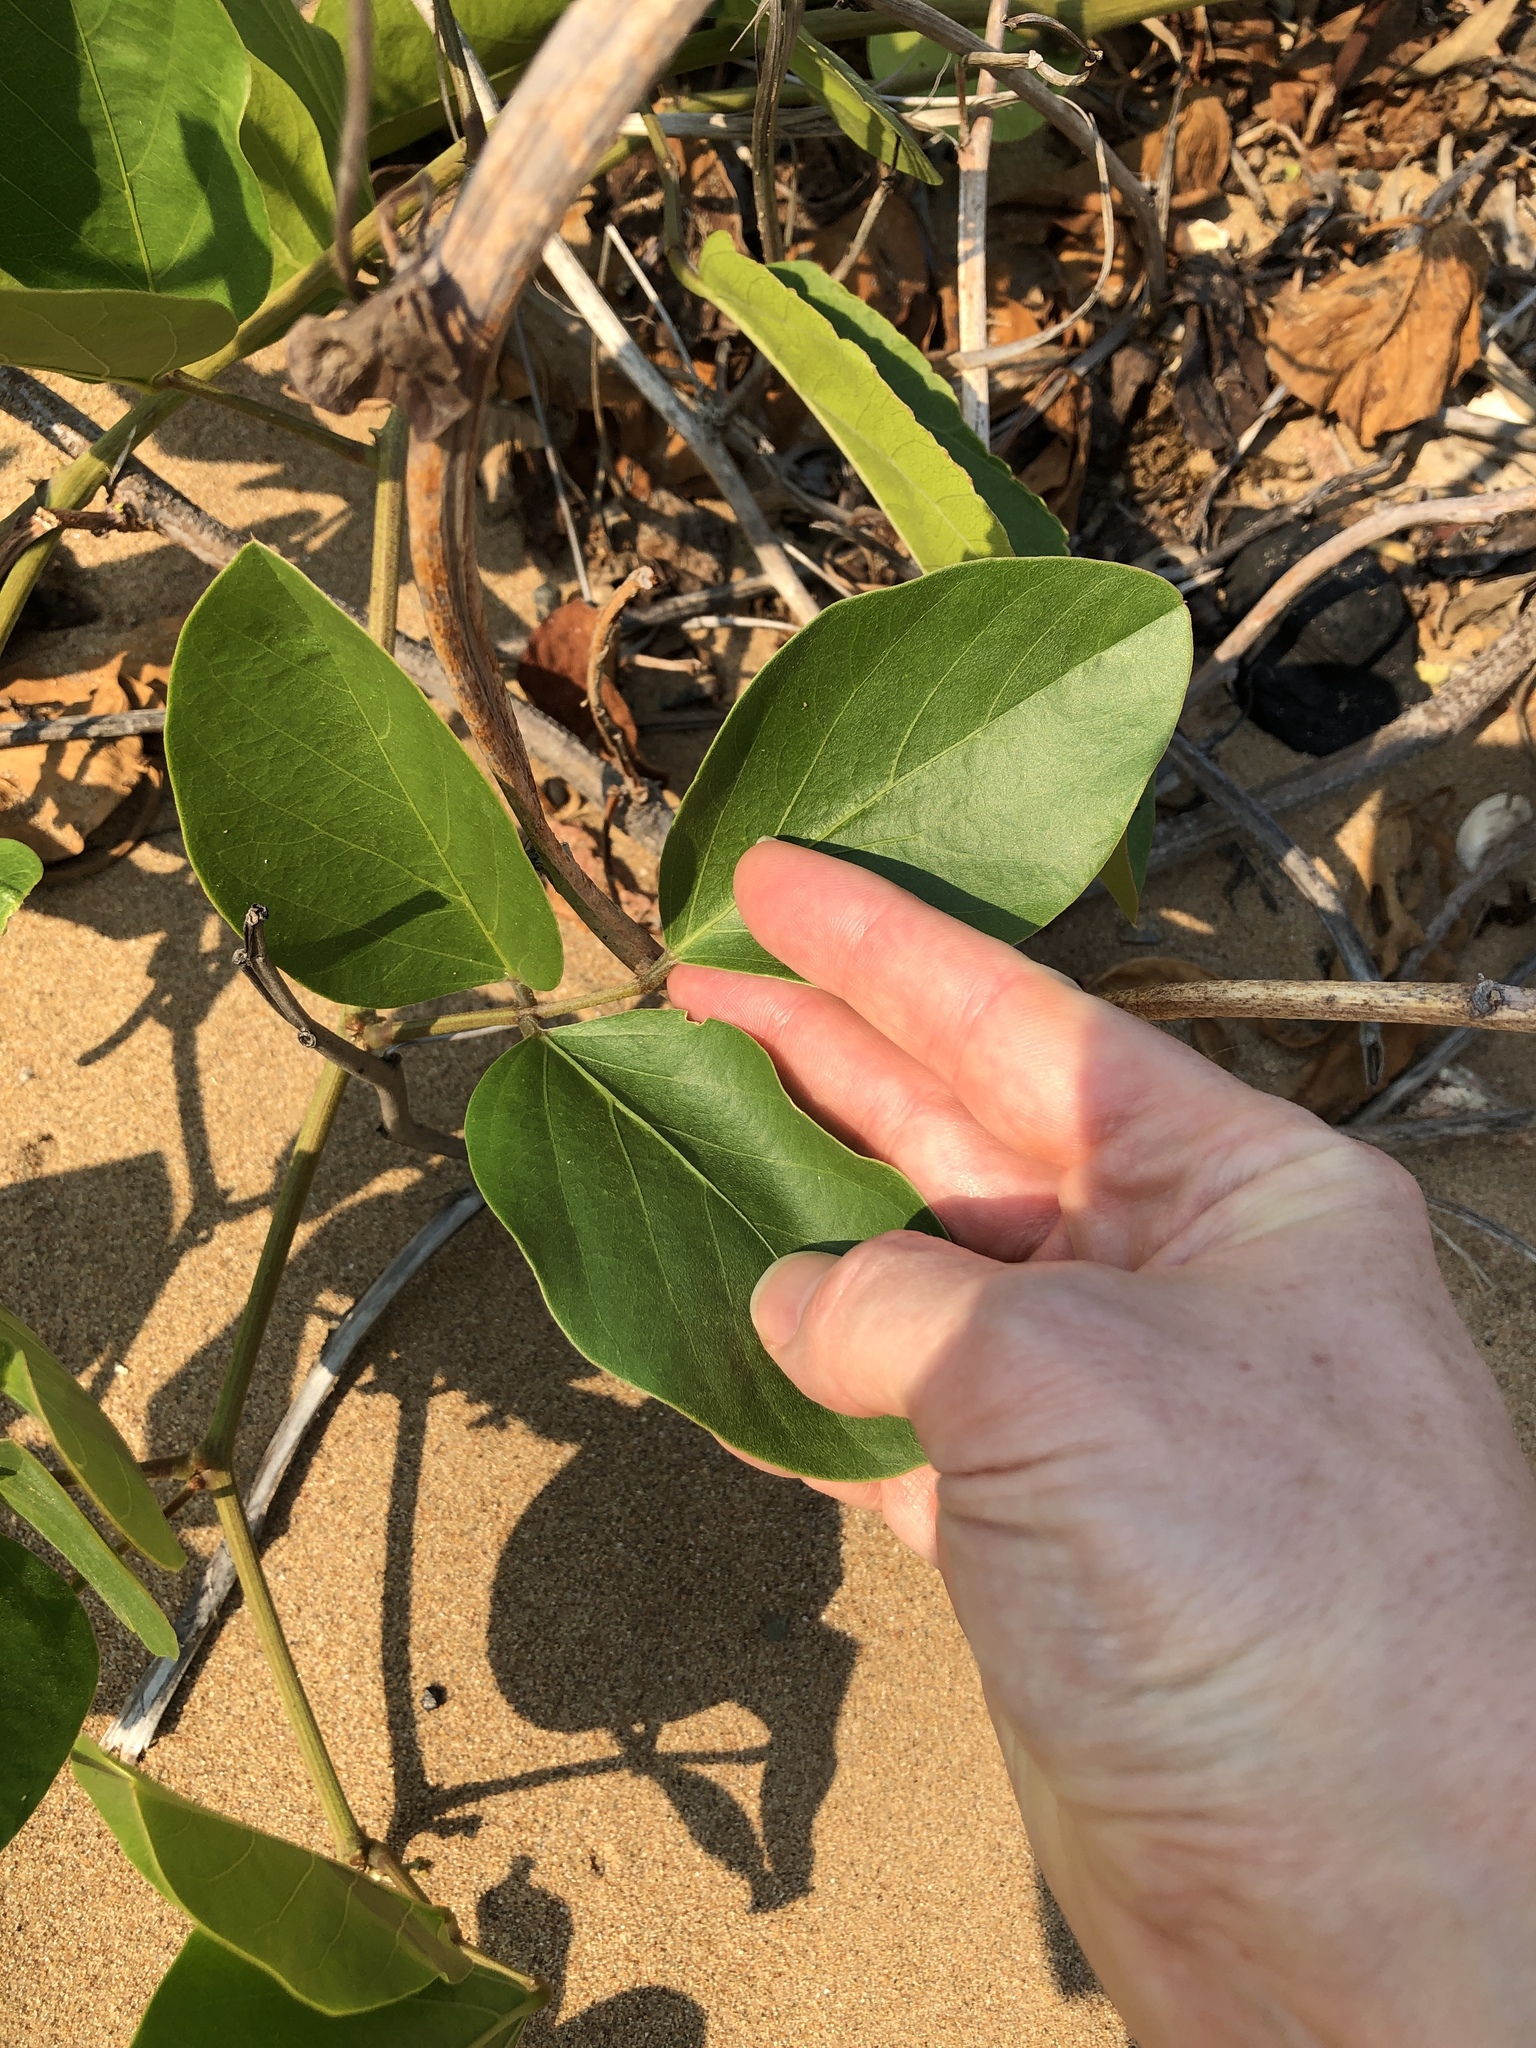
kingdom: Plantae
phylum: Tracheophyta
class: Magnoliopsida
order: Fabales
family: Fabaceae
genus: Canavalia
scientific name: Canavalia rosea
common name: Beach-bean
